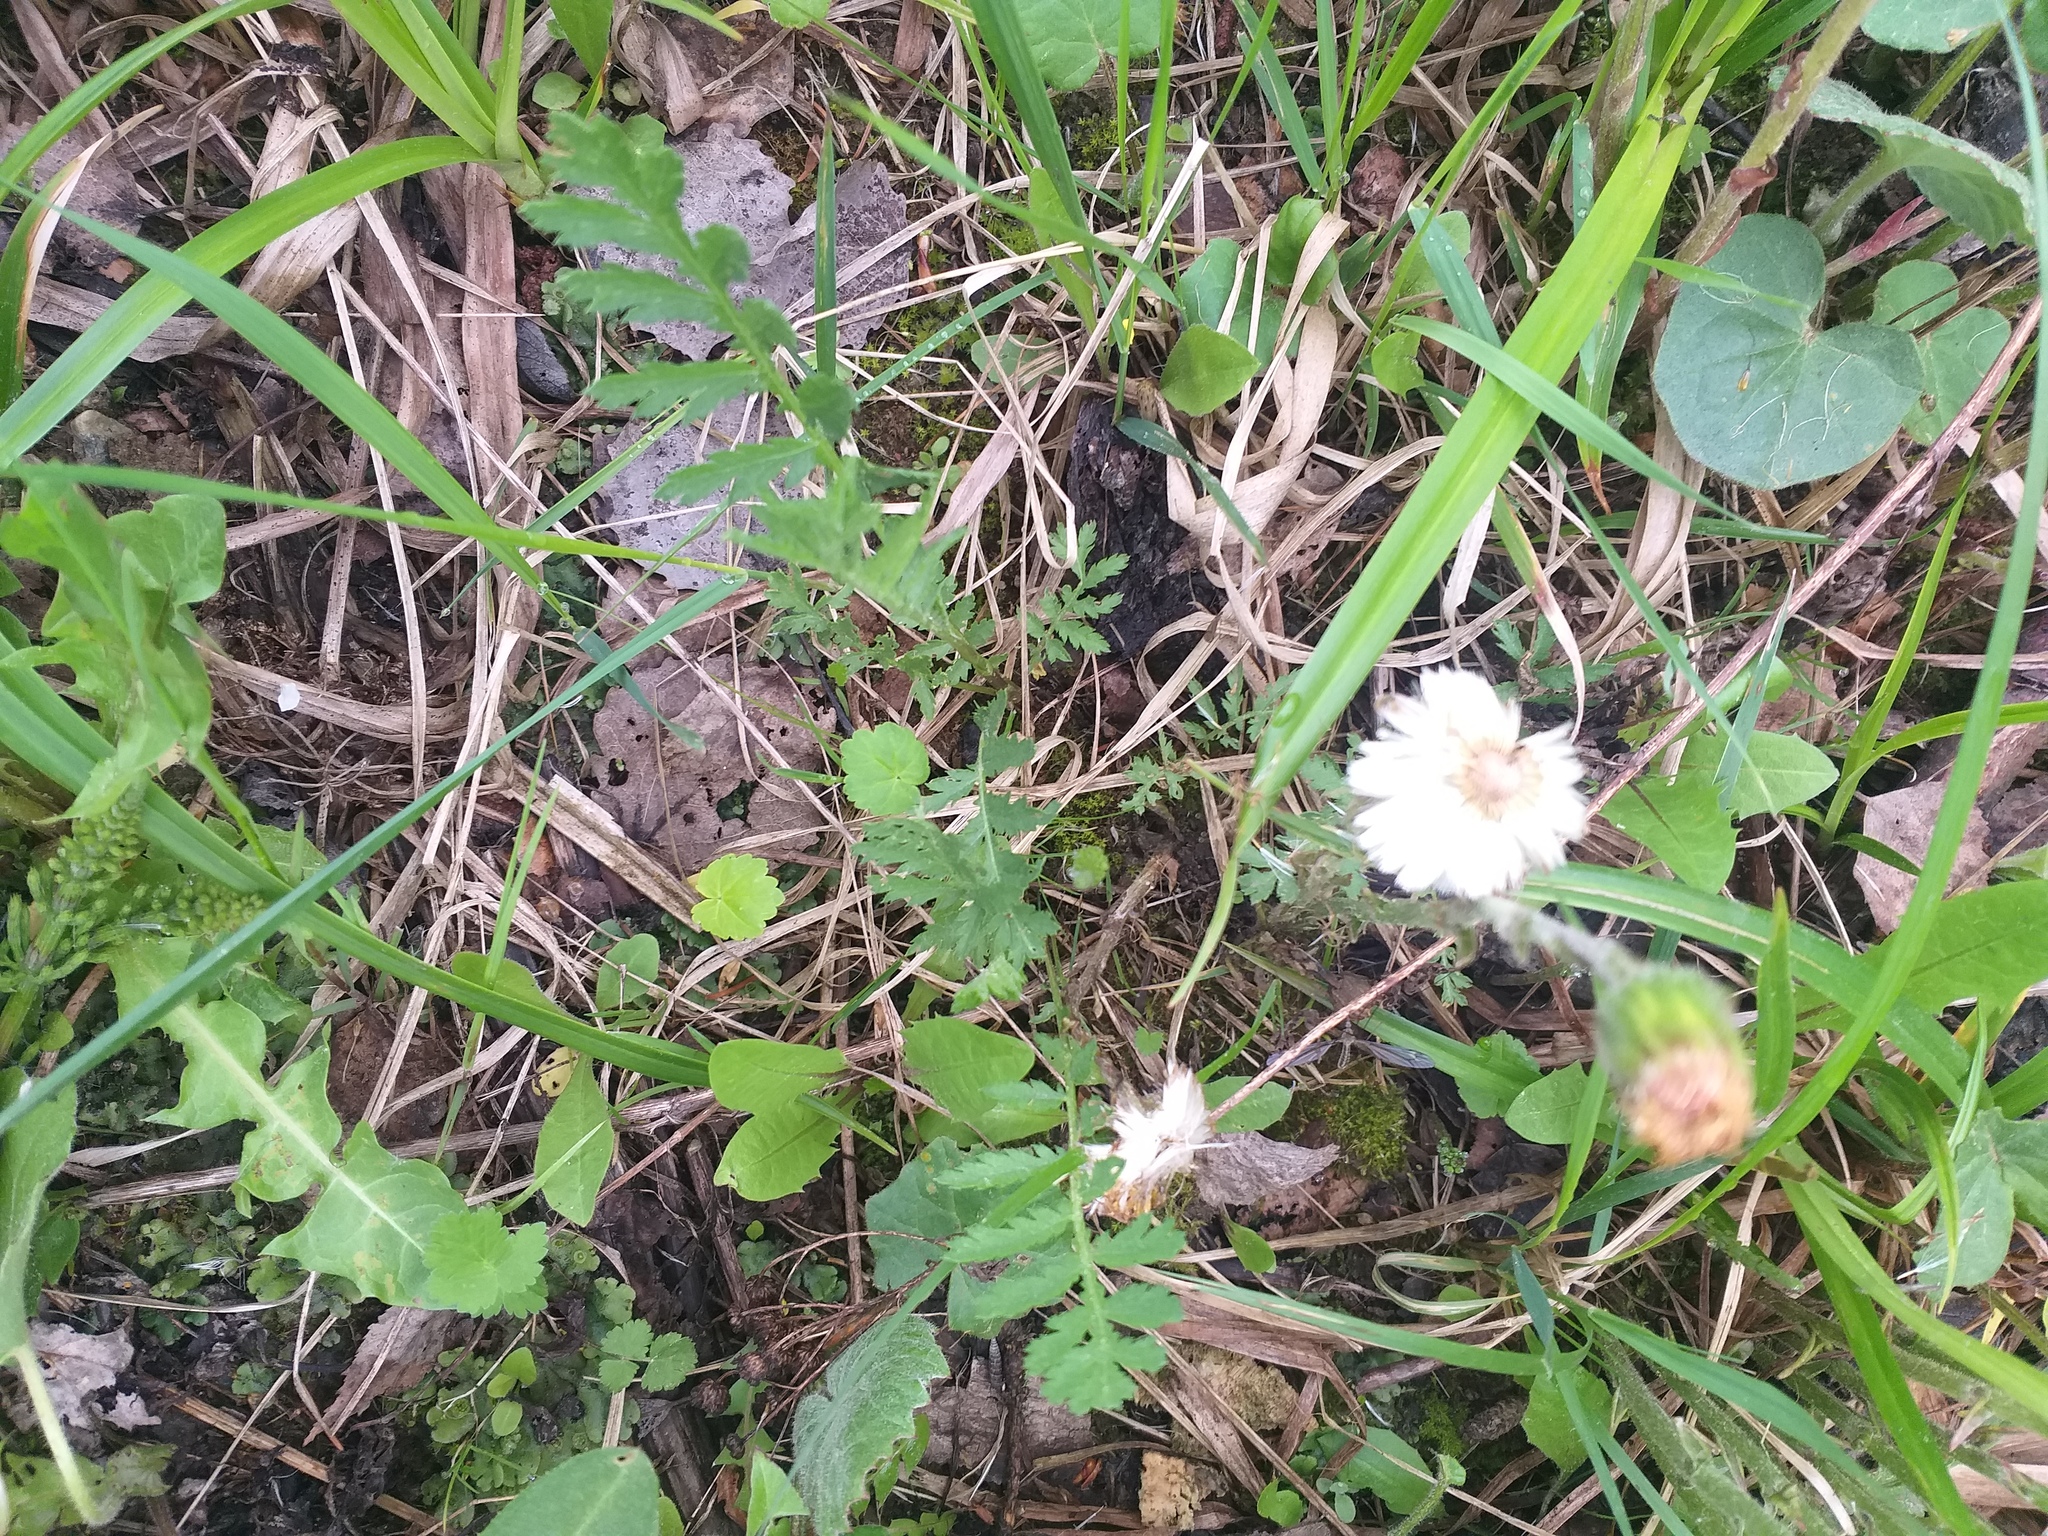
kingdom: Plantae
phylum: Tracheophyta
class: Magnoliopsida
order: Asterales
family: Asteraceae
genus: Tanacetum
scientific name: Tanacetum vulgare
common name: Common tansy
